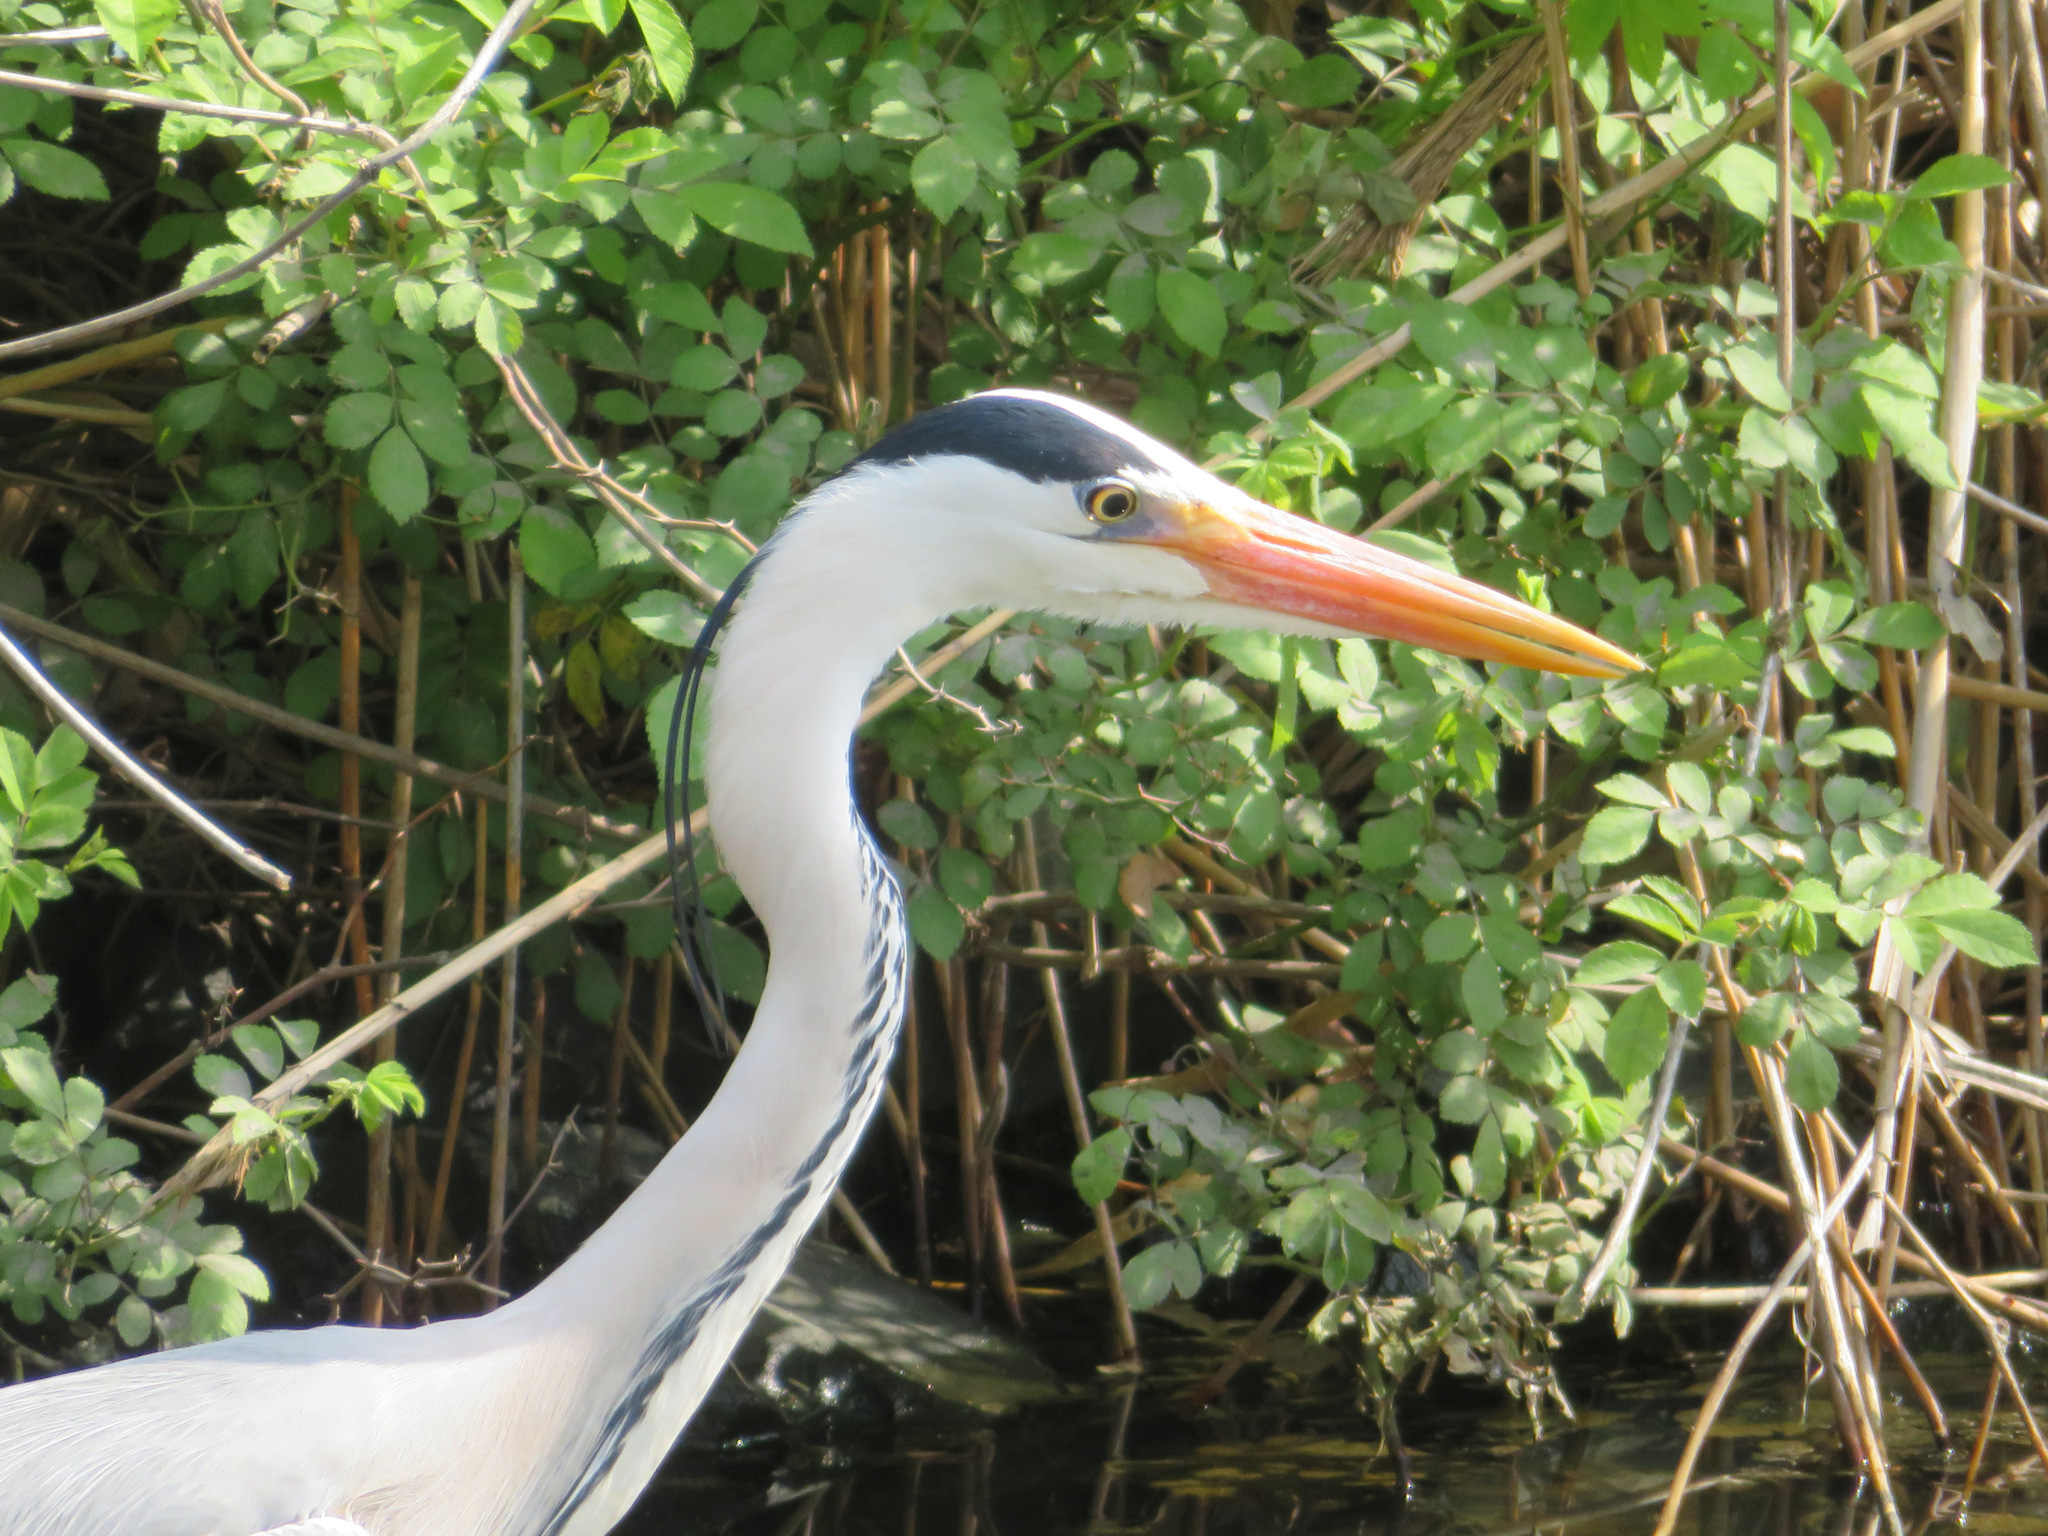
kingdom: Animalia
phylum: Chordata
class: Aves
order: Pelecaniformes
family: Ardeidae
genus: Ardea
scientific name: Ardea cinerea
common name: Grey heron
